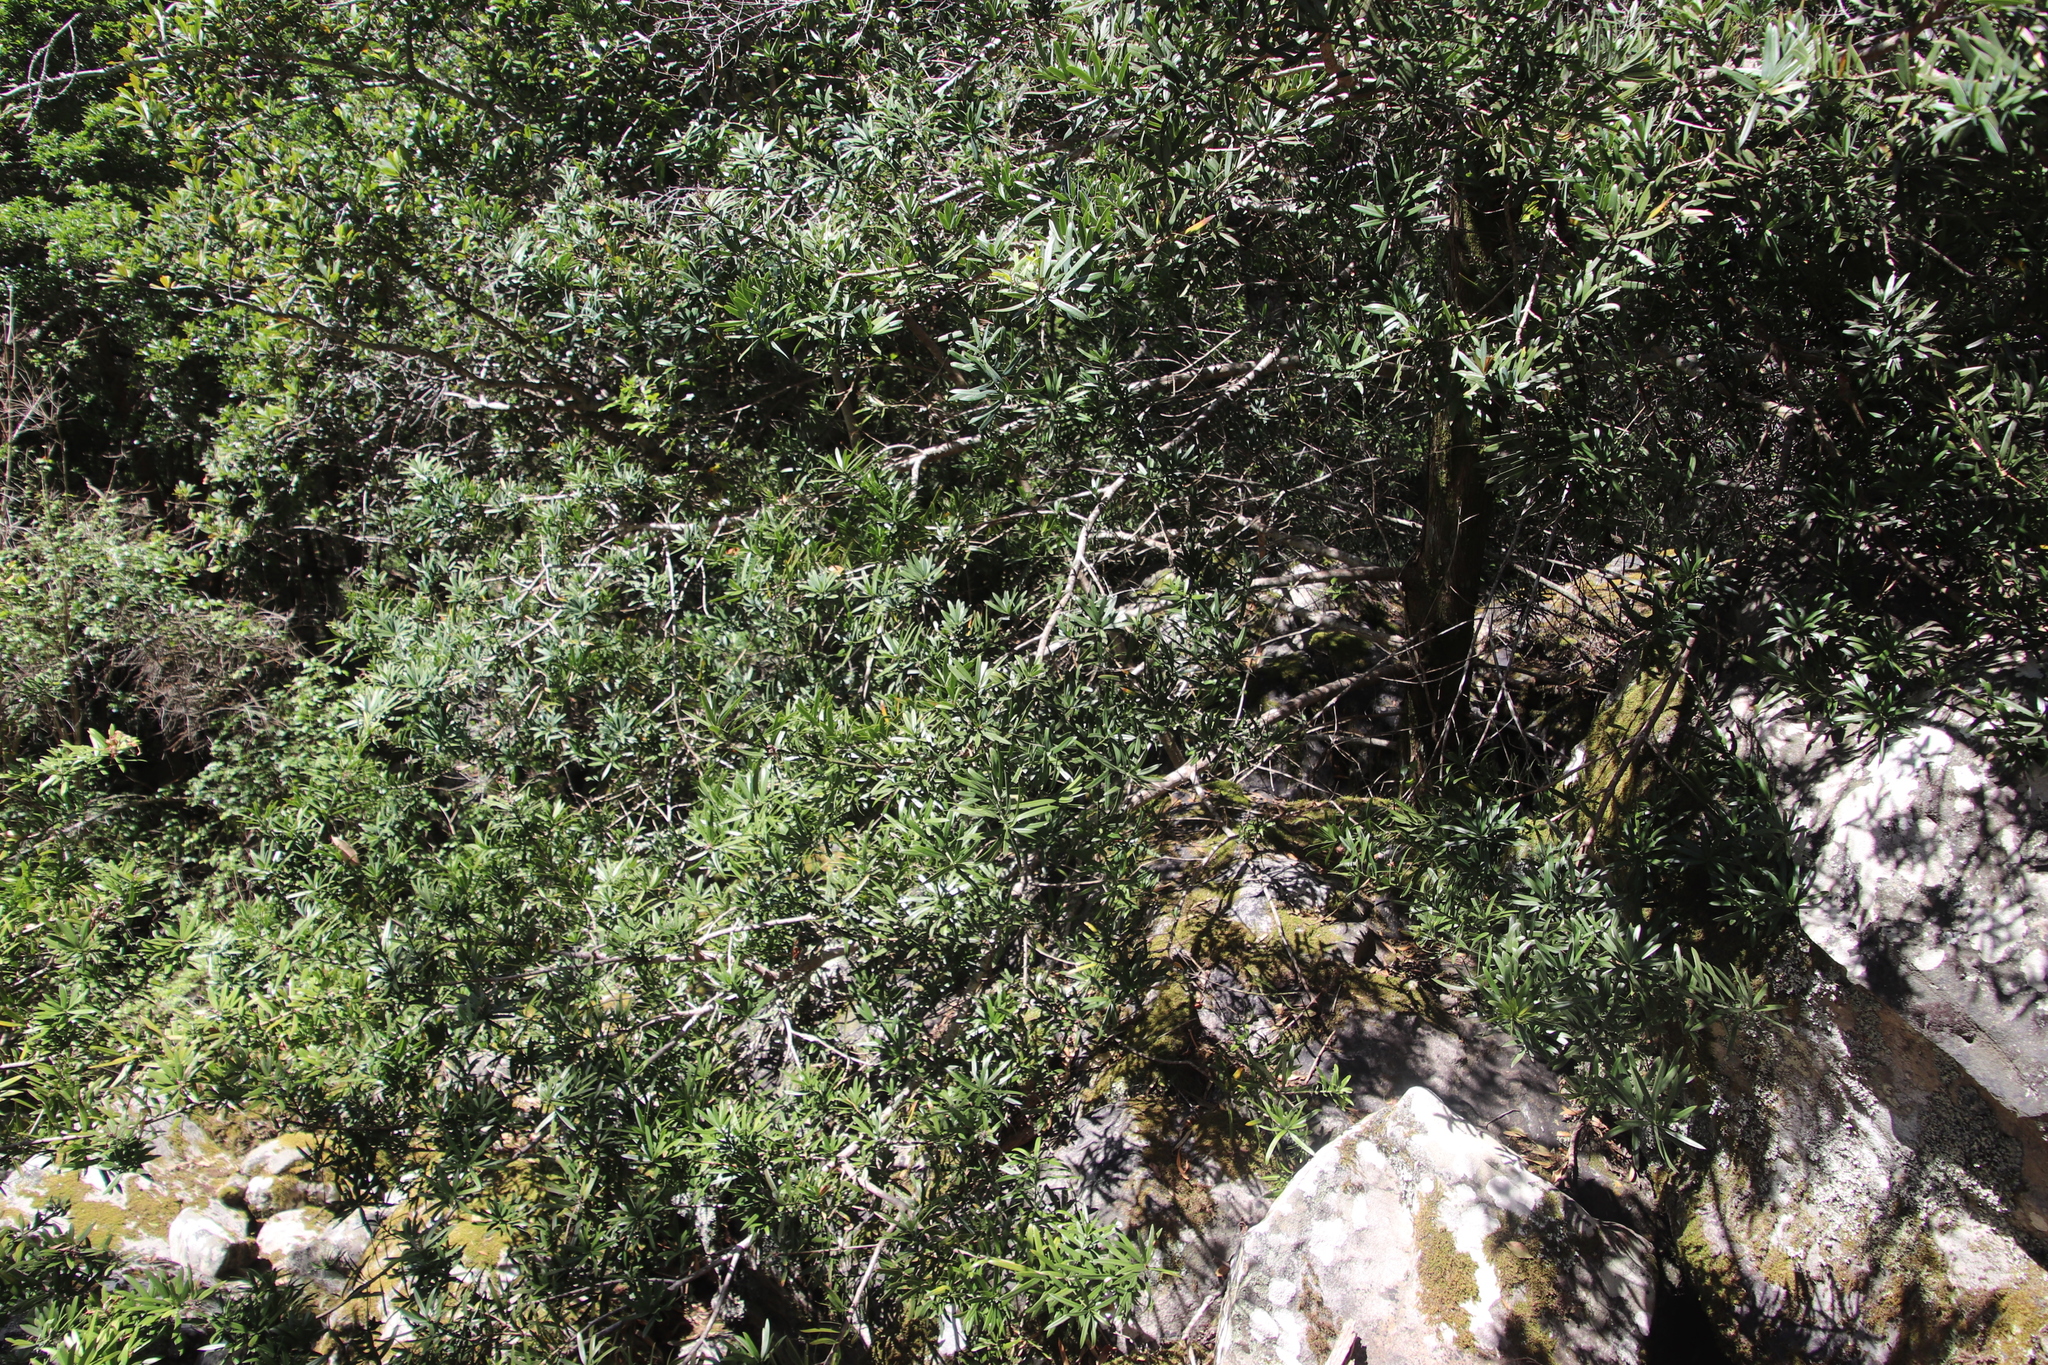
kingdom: Plantae
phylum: Tracheophyta
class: Pinopsida
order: Pinales
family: Podocarpaceae
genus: Podocarpus
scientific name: Podocarpus latifolius
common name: True yellowwood
